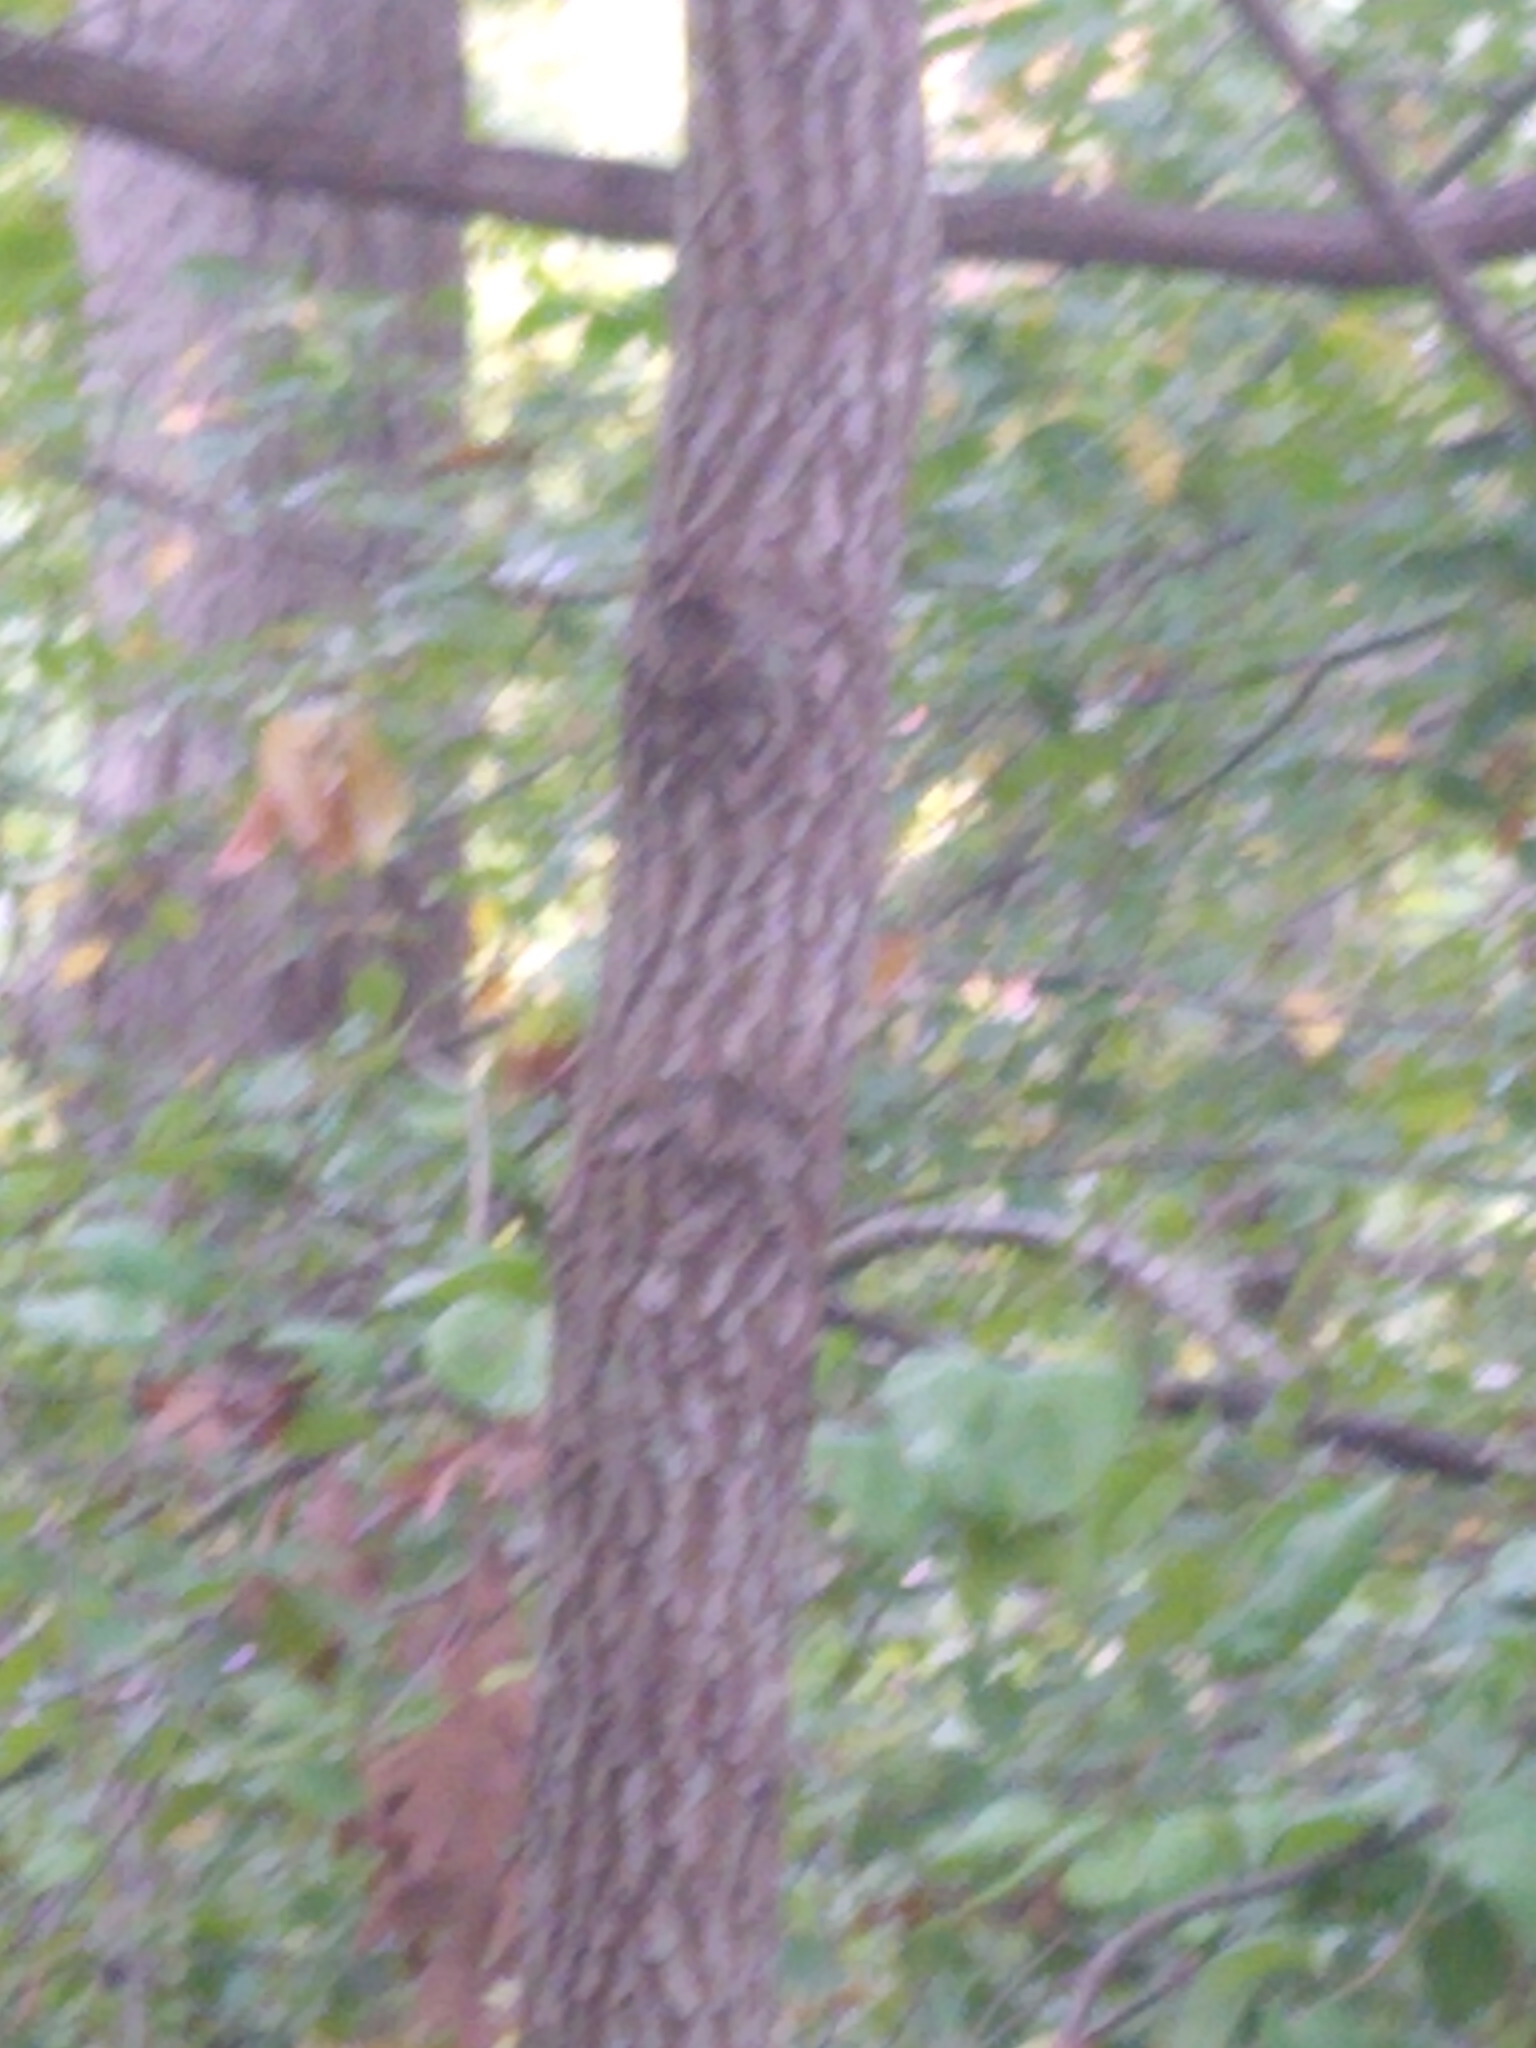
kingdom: Plantae
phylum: Tracheophyta
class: Magnoliopsida
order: Ericales
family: Ebenaceae
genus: Diospyros
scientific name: Diospyros virginiana
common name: Persimmon
